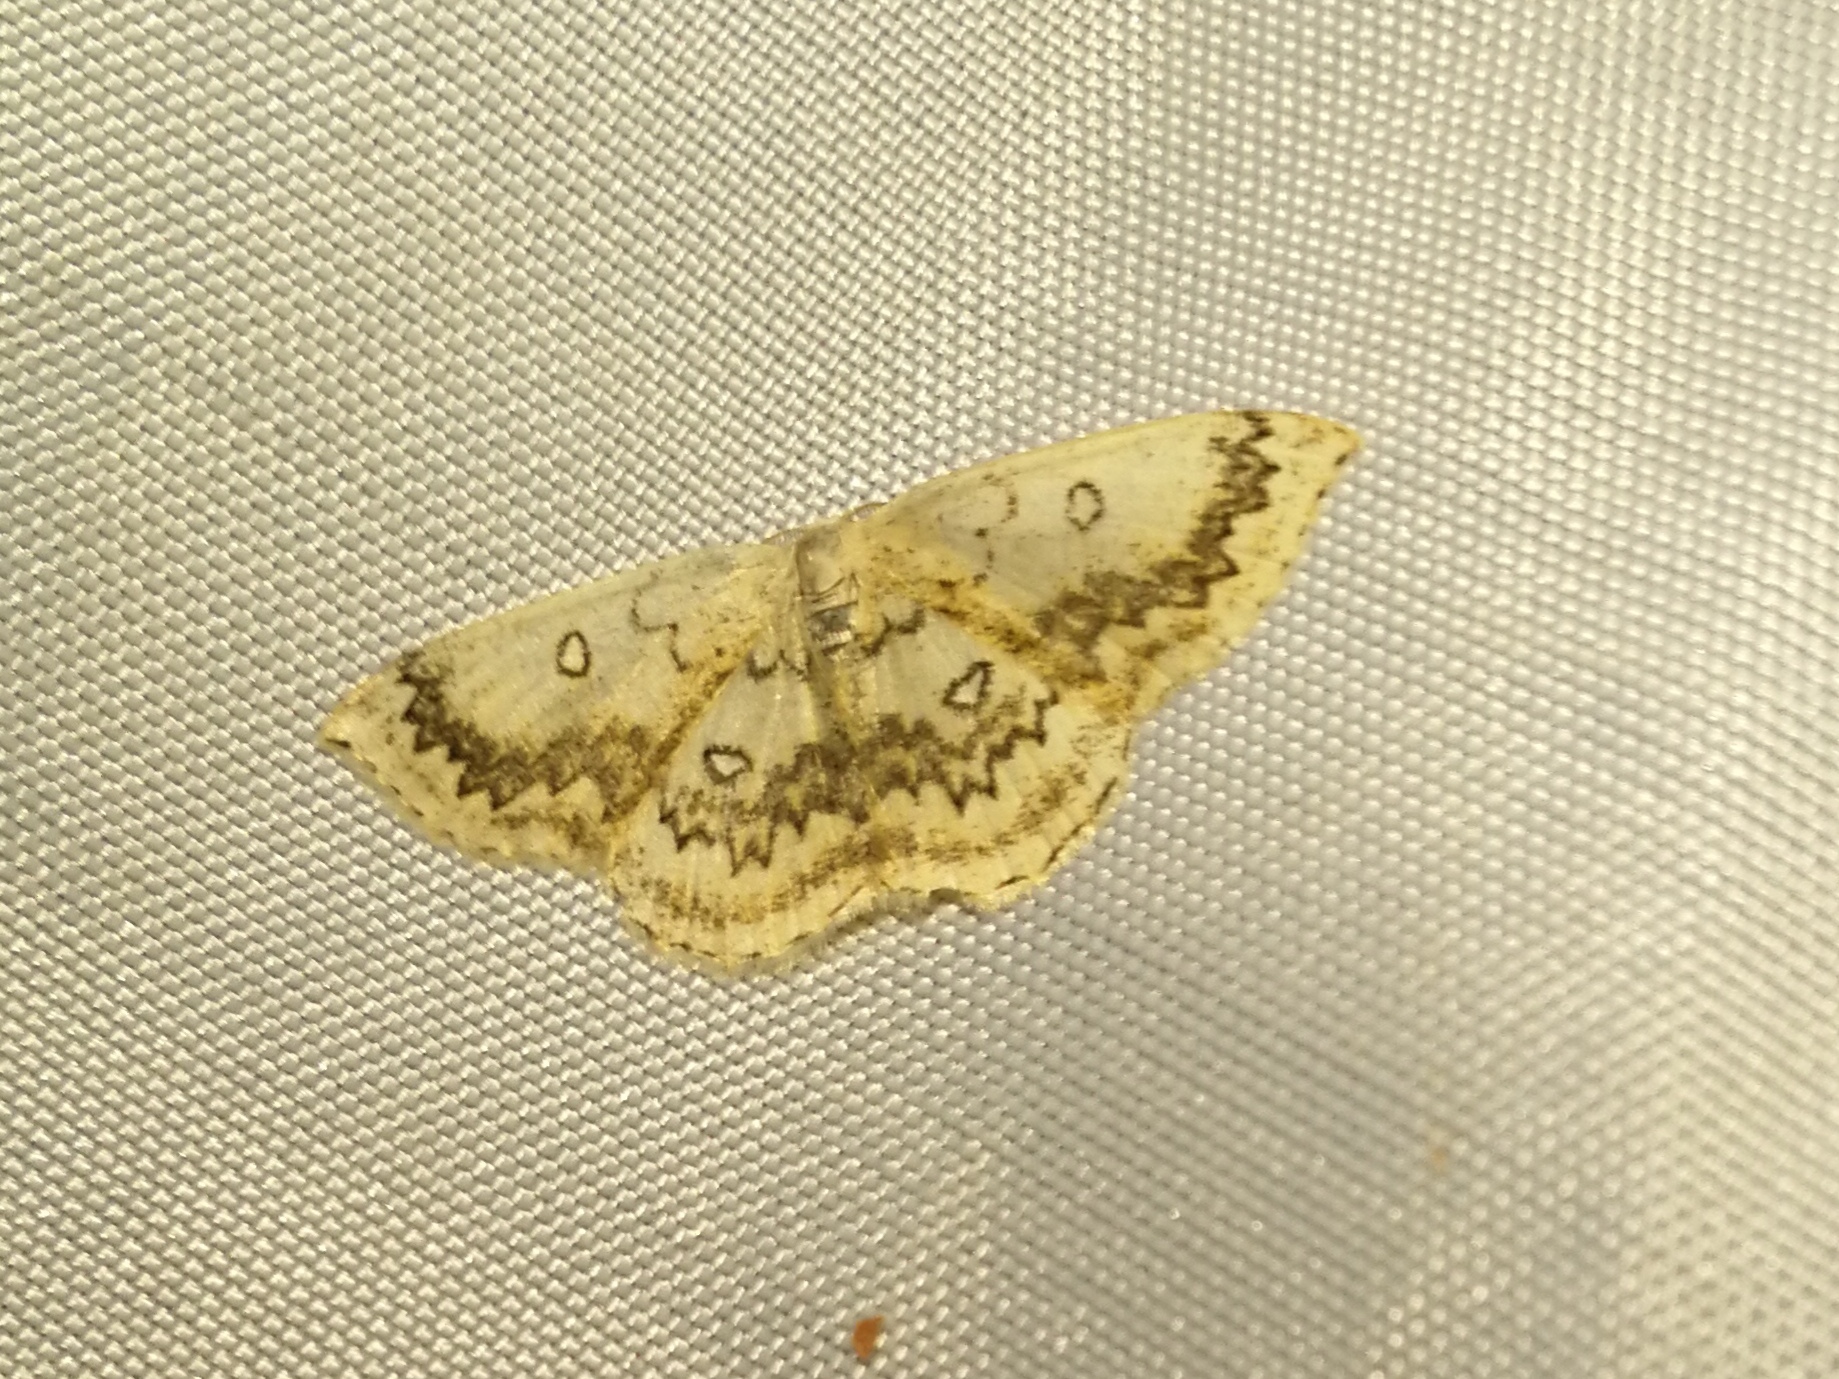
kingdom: Animalia
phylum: Arthropoda
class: Insecta
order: Lepidoptera
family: Geometridae
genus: Cyclophora
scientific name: Cyclophora annularia
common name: Mocha
